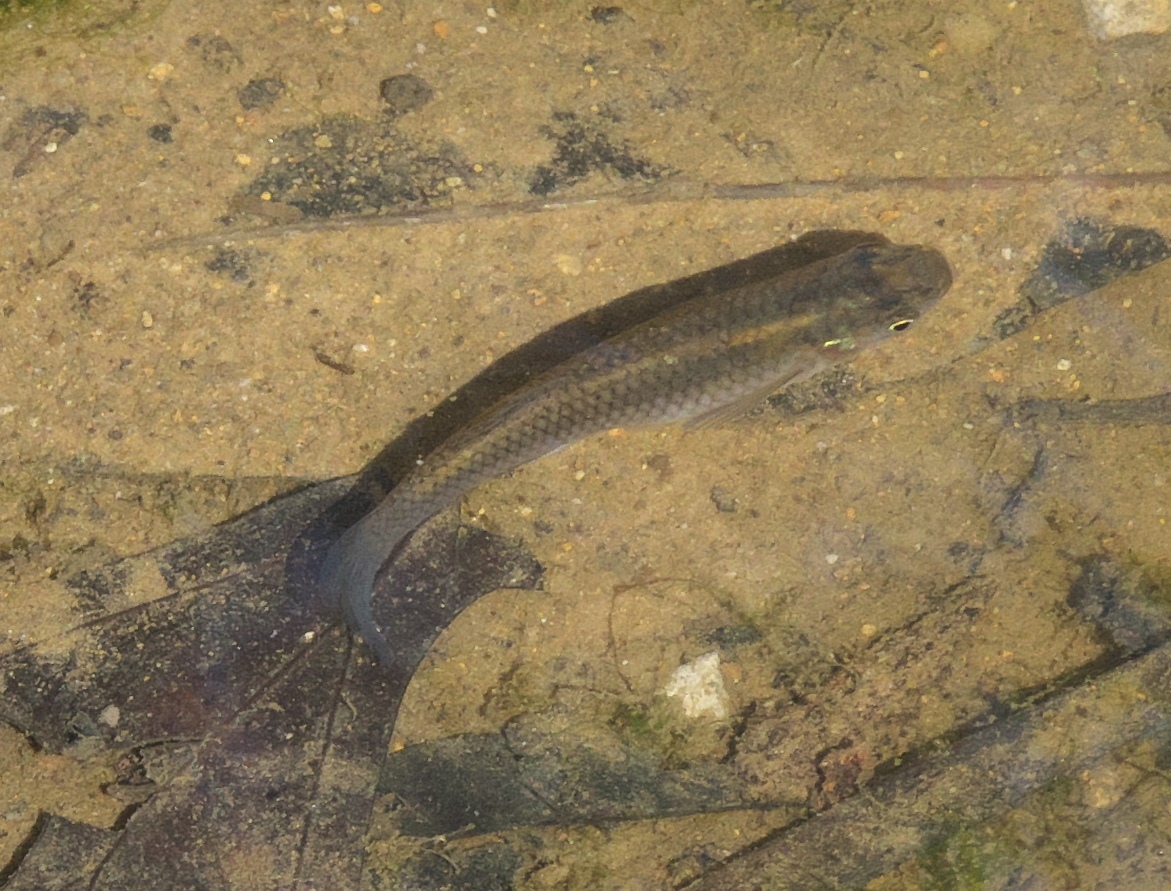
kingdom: Animalia
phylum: Chordata
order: Cyprinodontiformes
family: Poeciliidae
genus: Gambusia
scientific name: Gambusia affinis
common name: Mosquitofish
